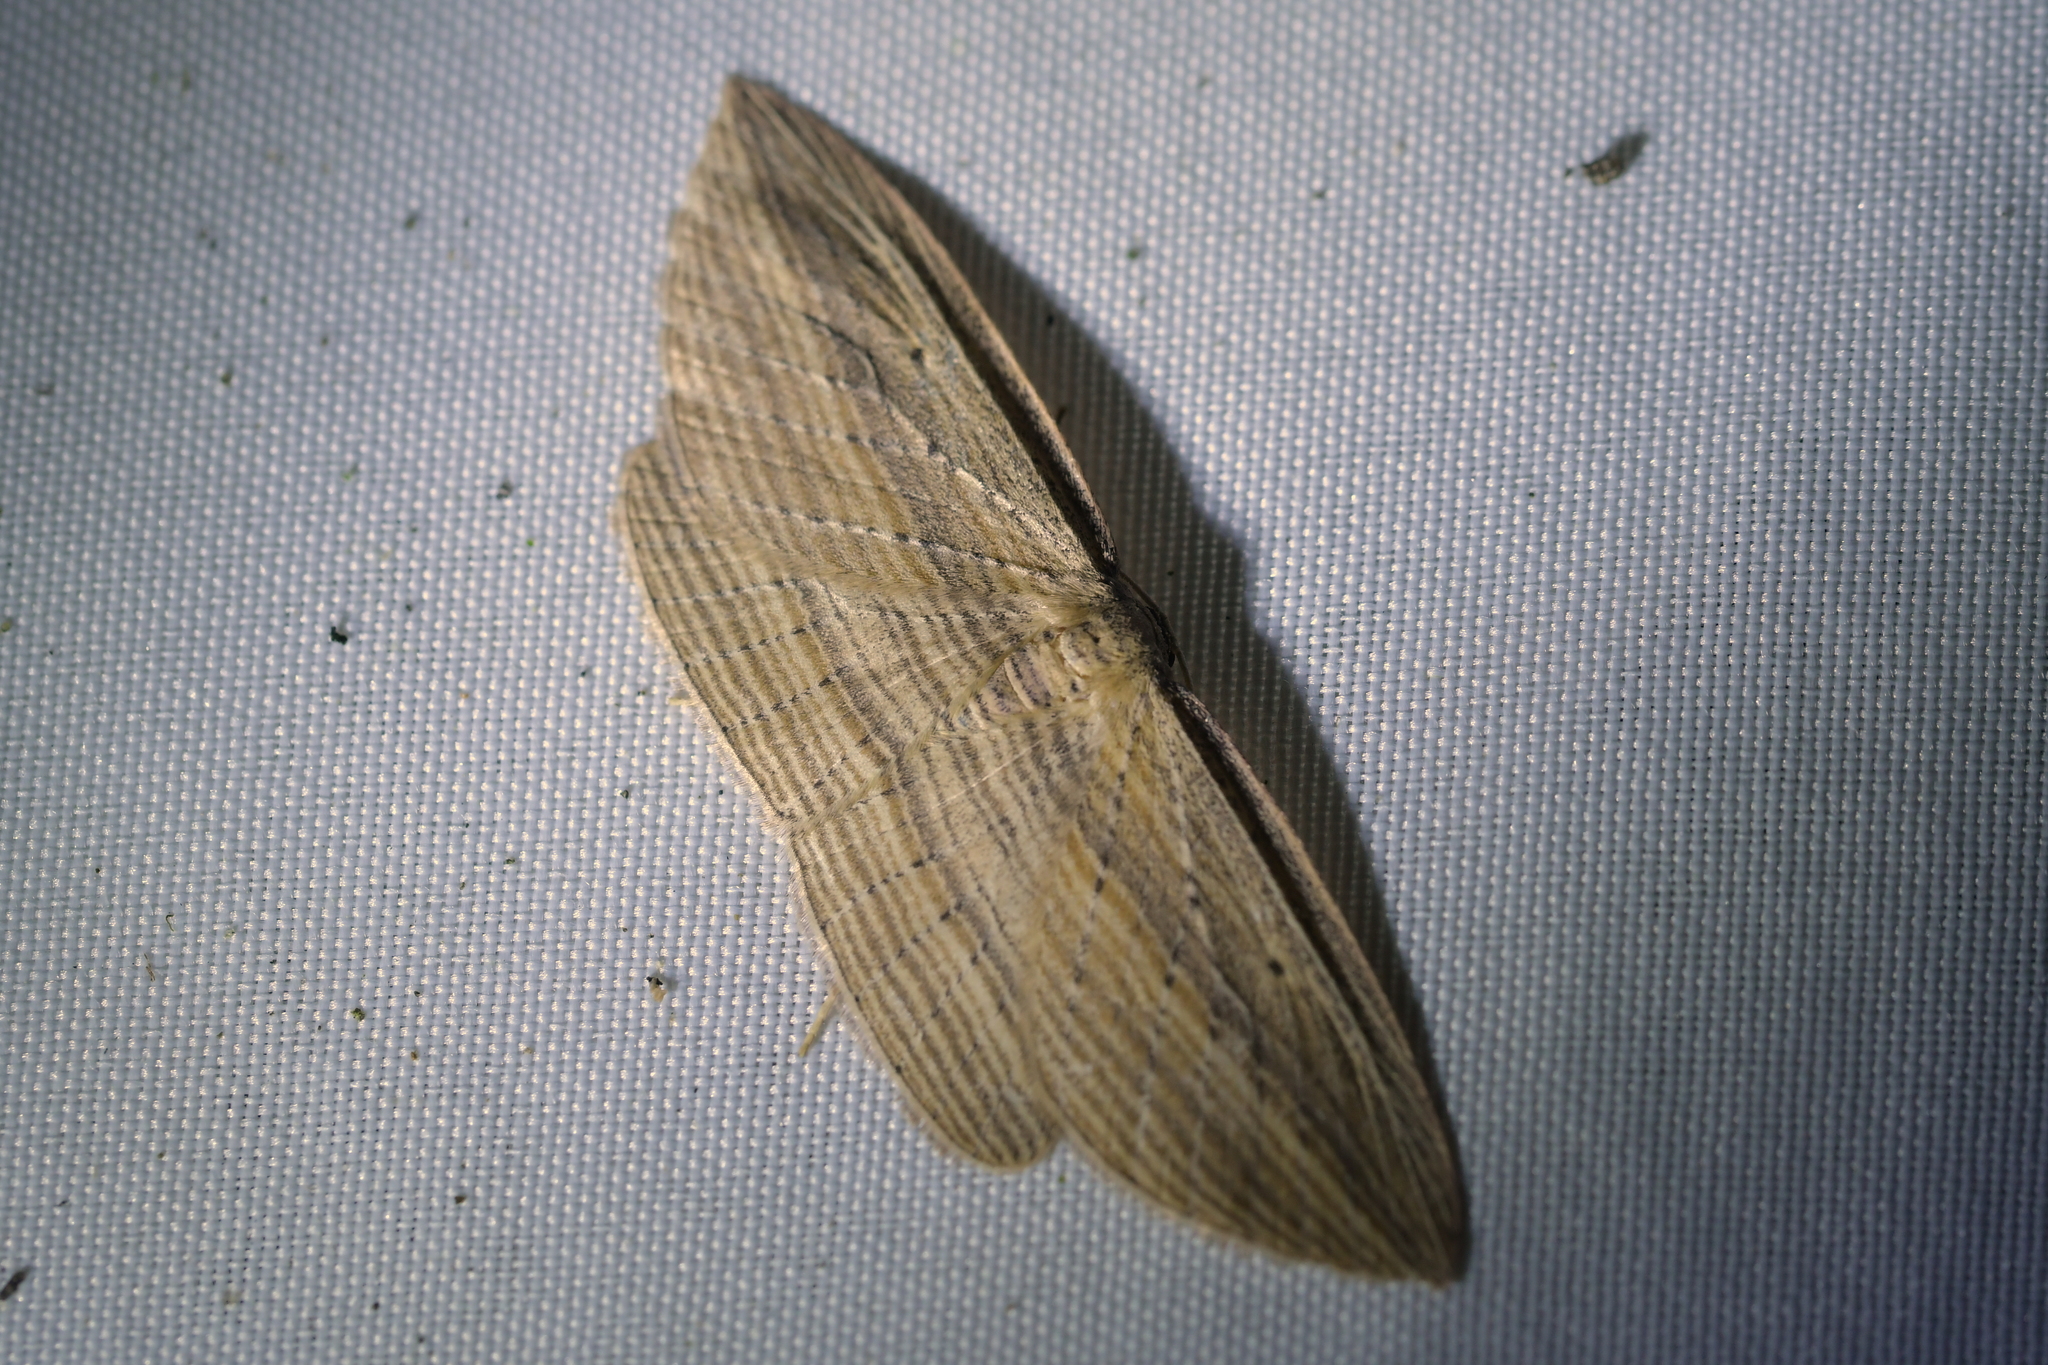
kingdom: Animalia
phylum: Arthropoda
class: Insecta
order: Lepidoptera
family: Geometridae
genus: Epiphryne
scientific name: Epiphryne verriculata
